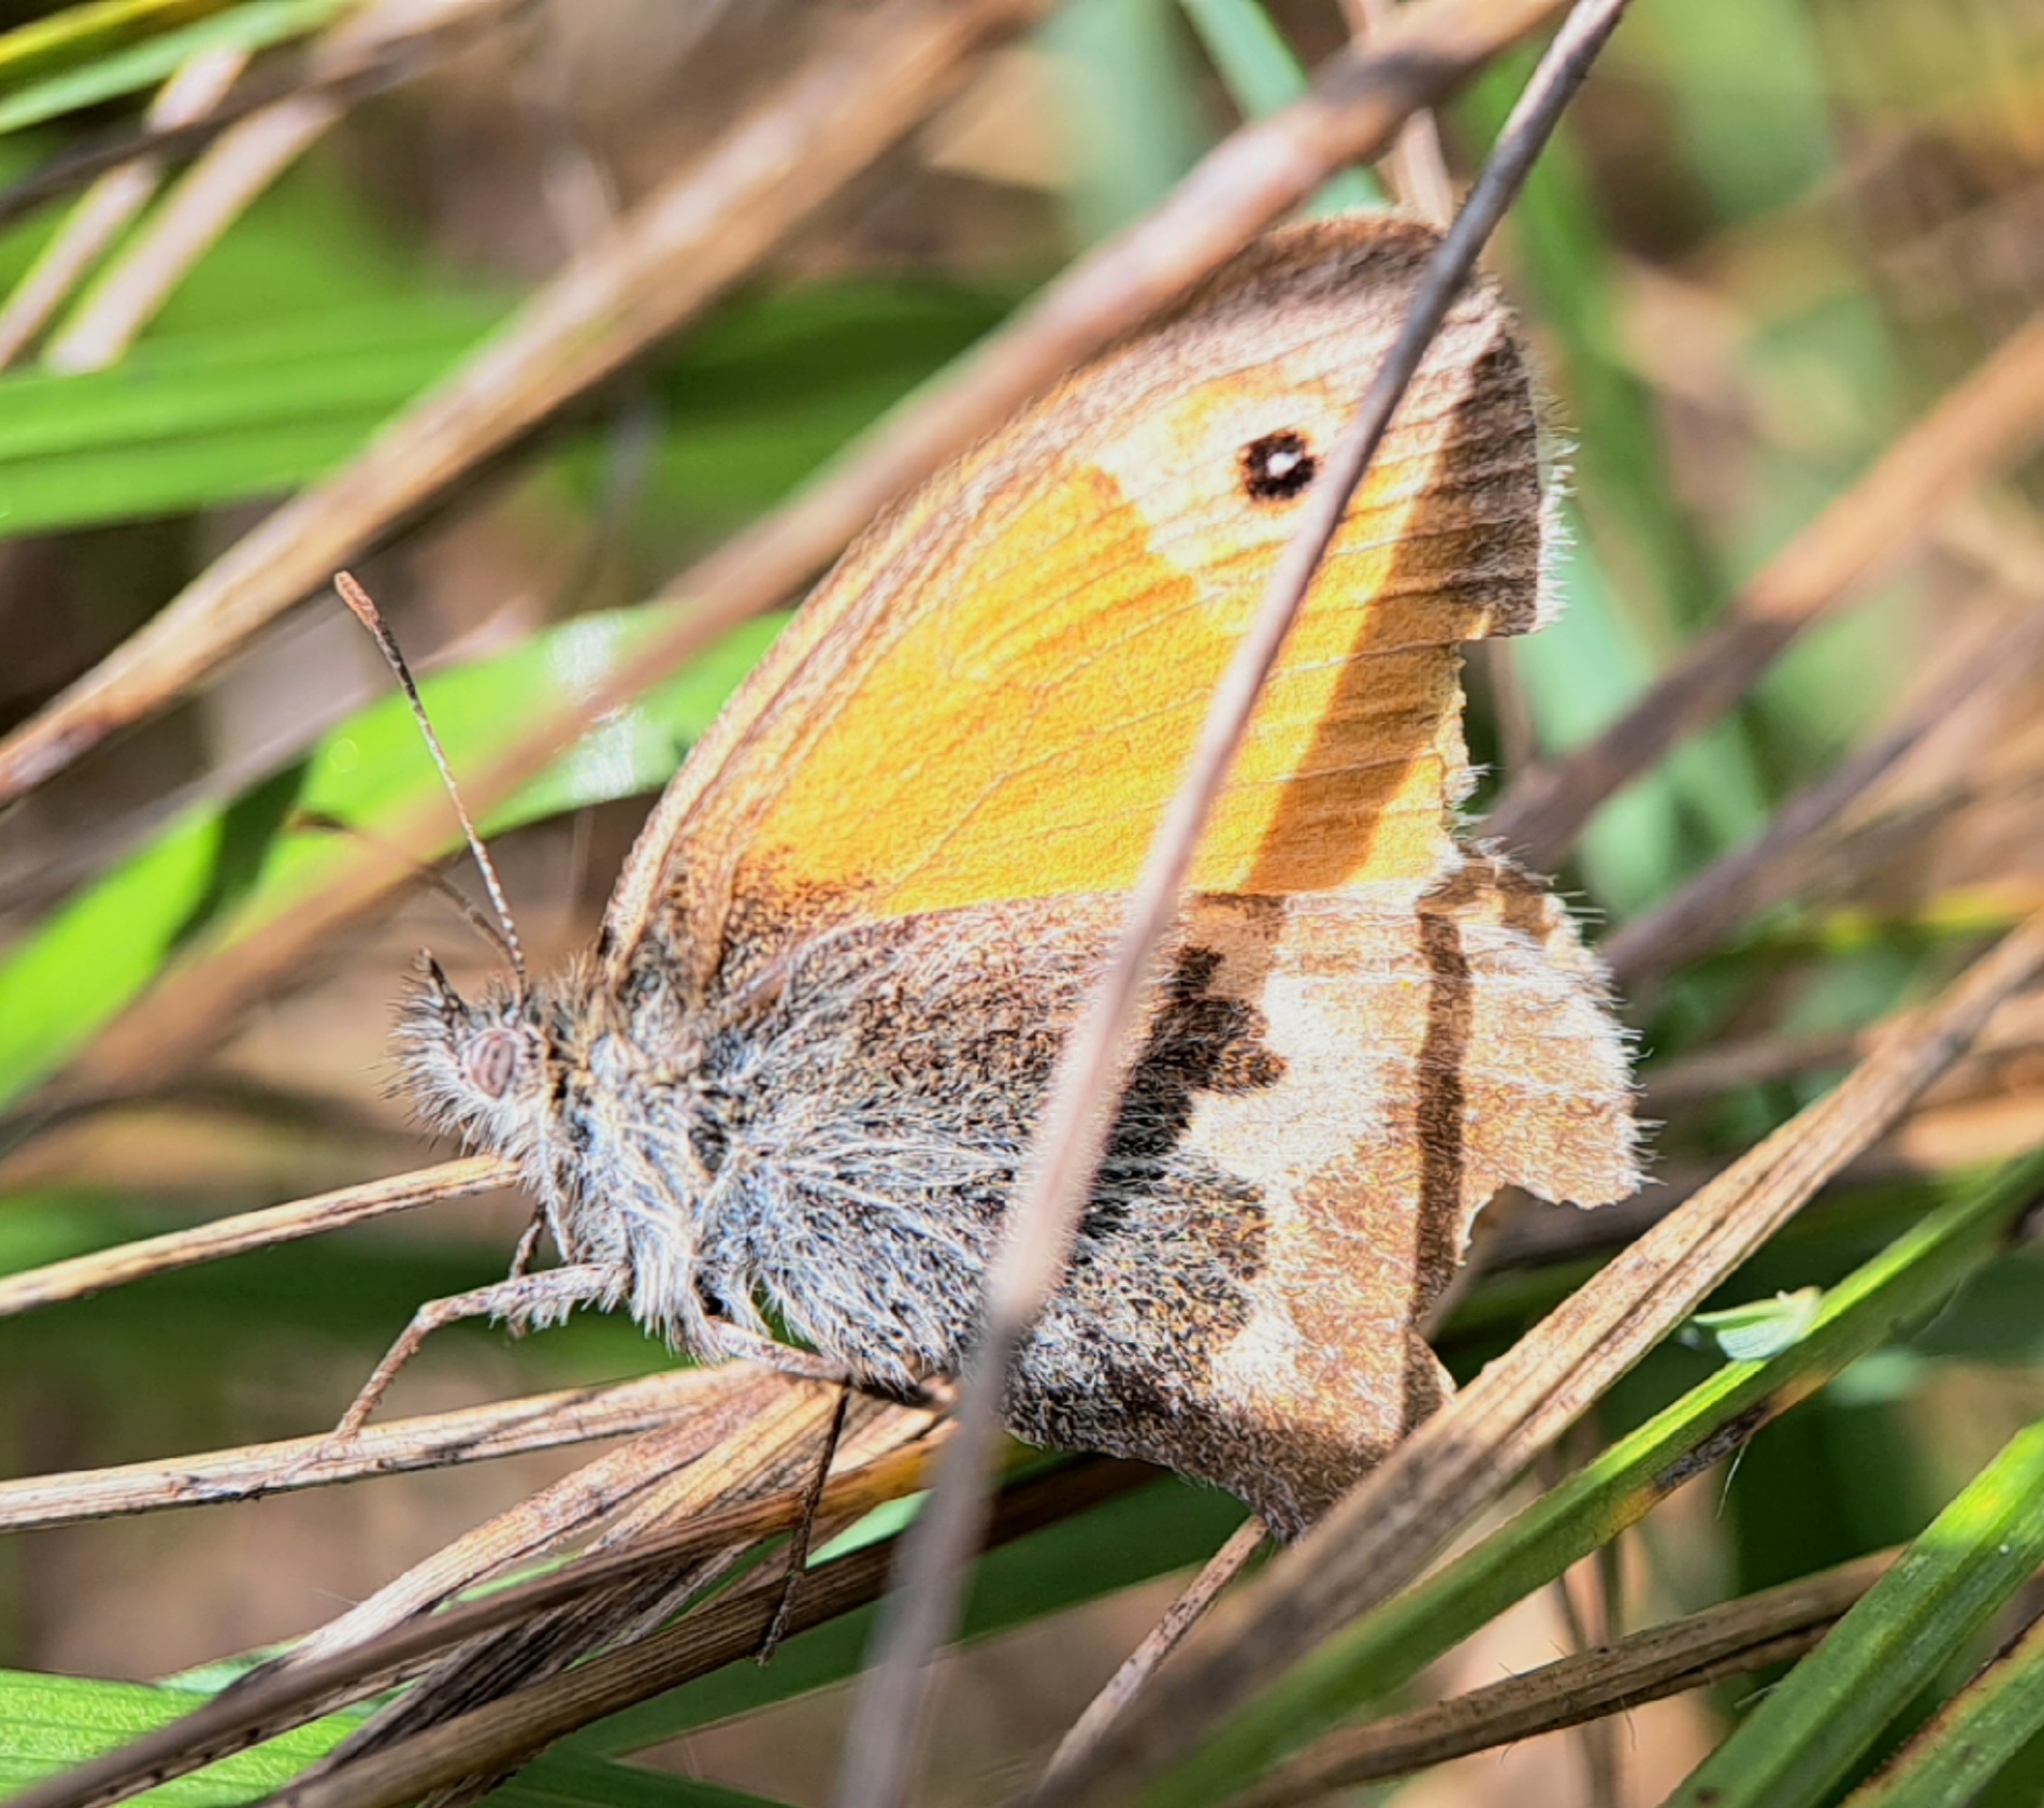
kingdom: Animalia
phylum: Arthropoda
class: Insecta
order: Lepidoptera
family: Nymphalidae
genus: Coenonympha
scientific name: Coenonympha pamphilus
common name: Small heath
